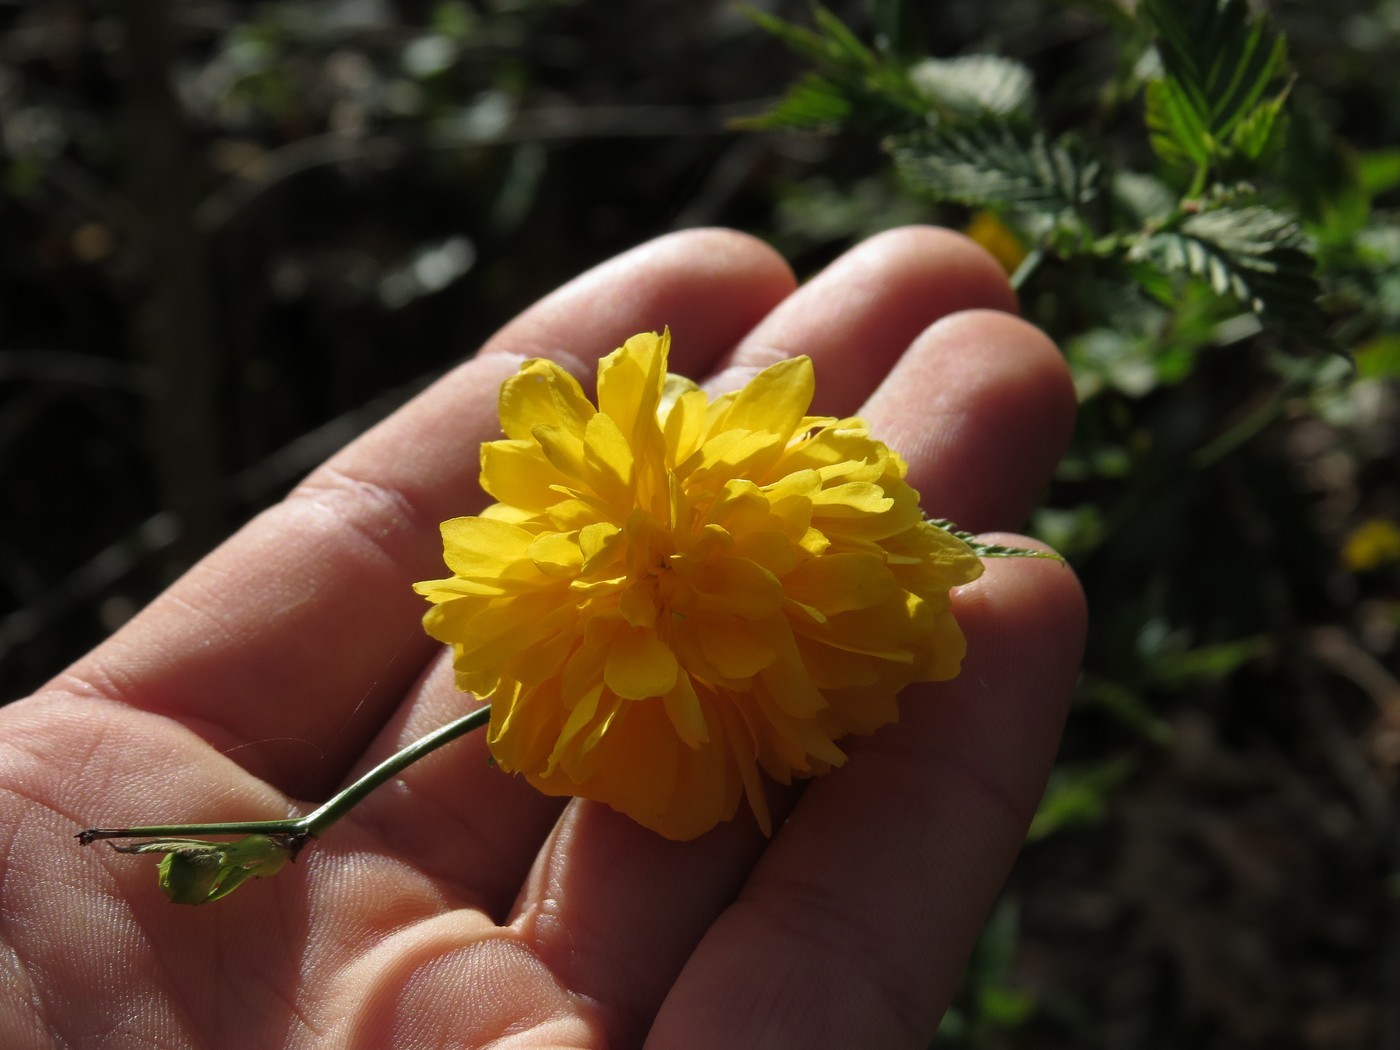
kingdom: Plantae
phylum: Tracheophyta
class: Magnoliopsida
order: Rosales
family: Rosaceae
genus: Kerria
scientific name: Kerria japonica
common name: Japanese kerria
